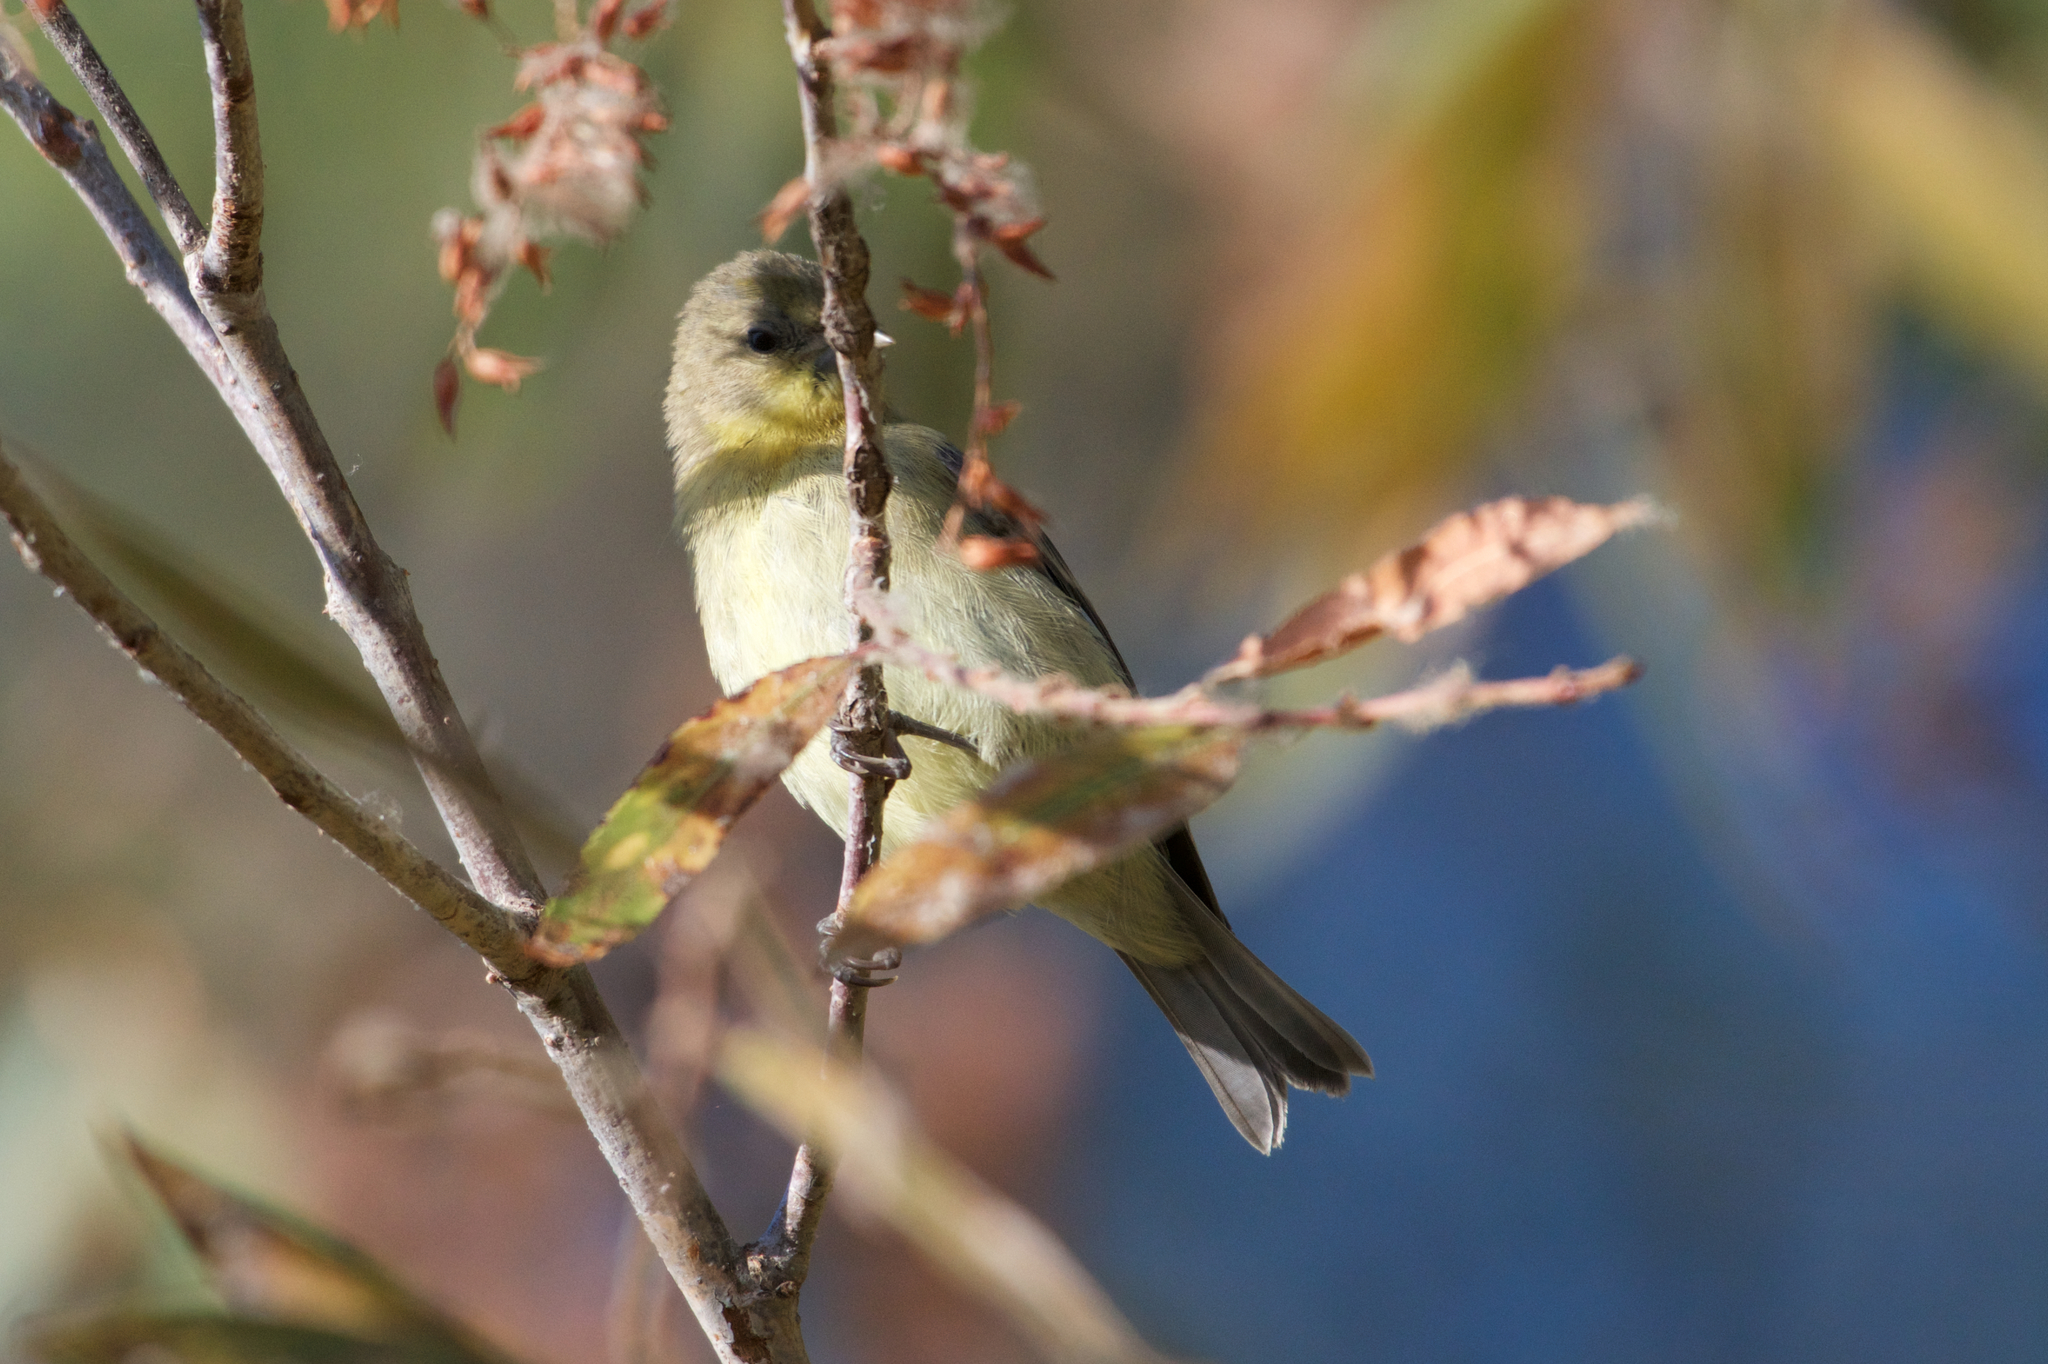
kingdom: Animalia
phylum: Chordata
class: Aves
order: Passeriformes
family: Fringillidae
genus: Spinus
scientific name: Spinus psaltria
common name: Lesser goldfinch
